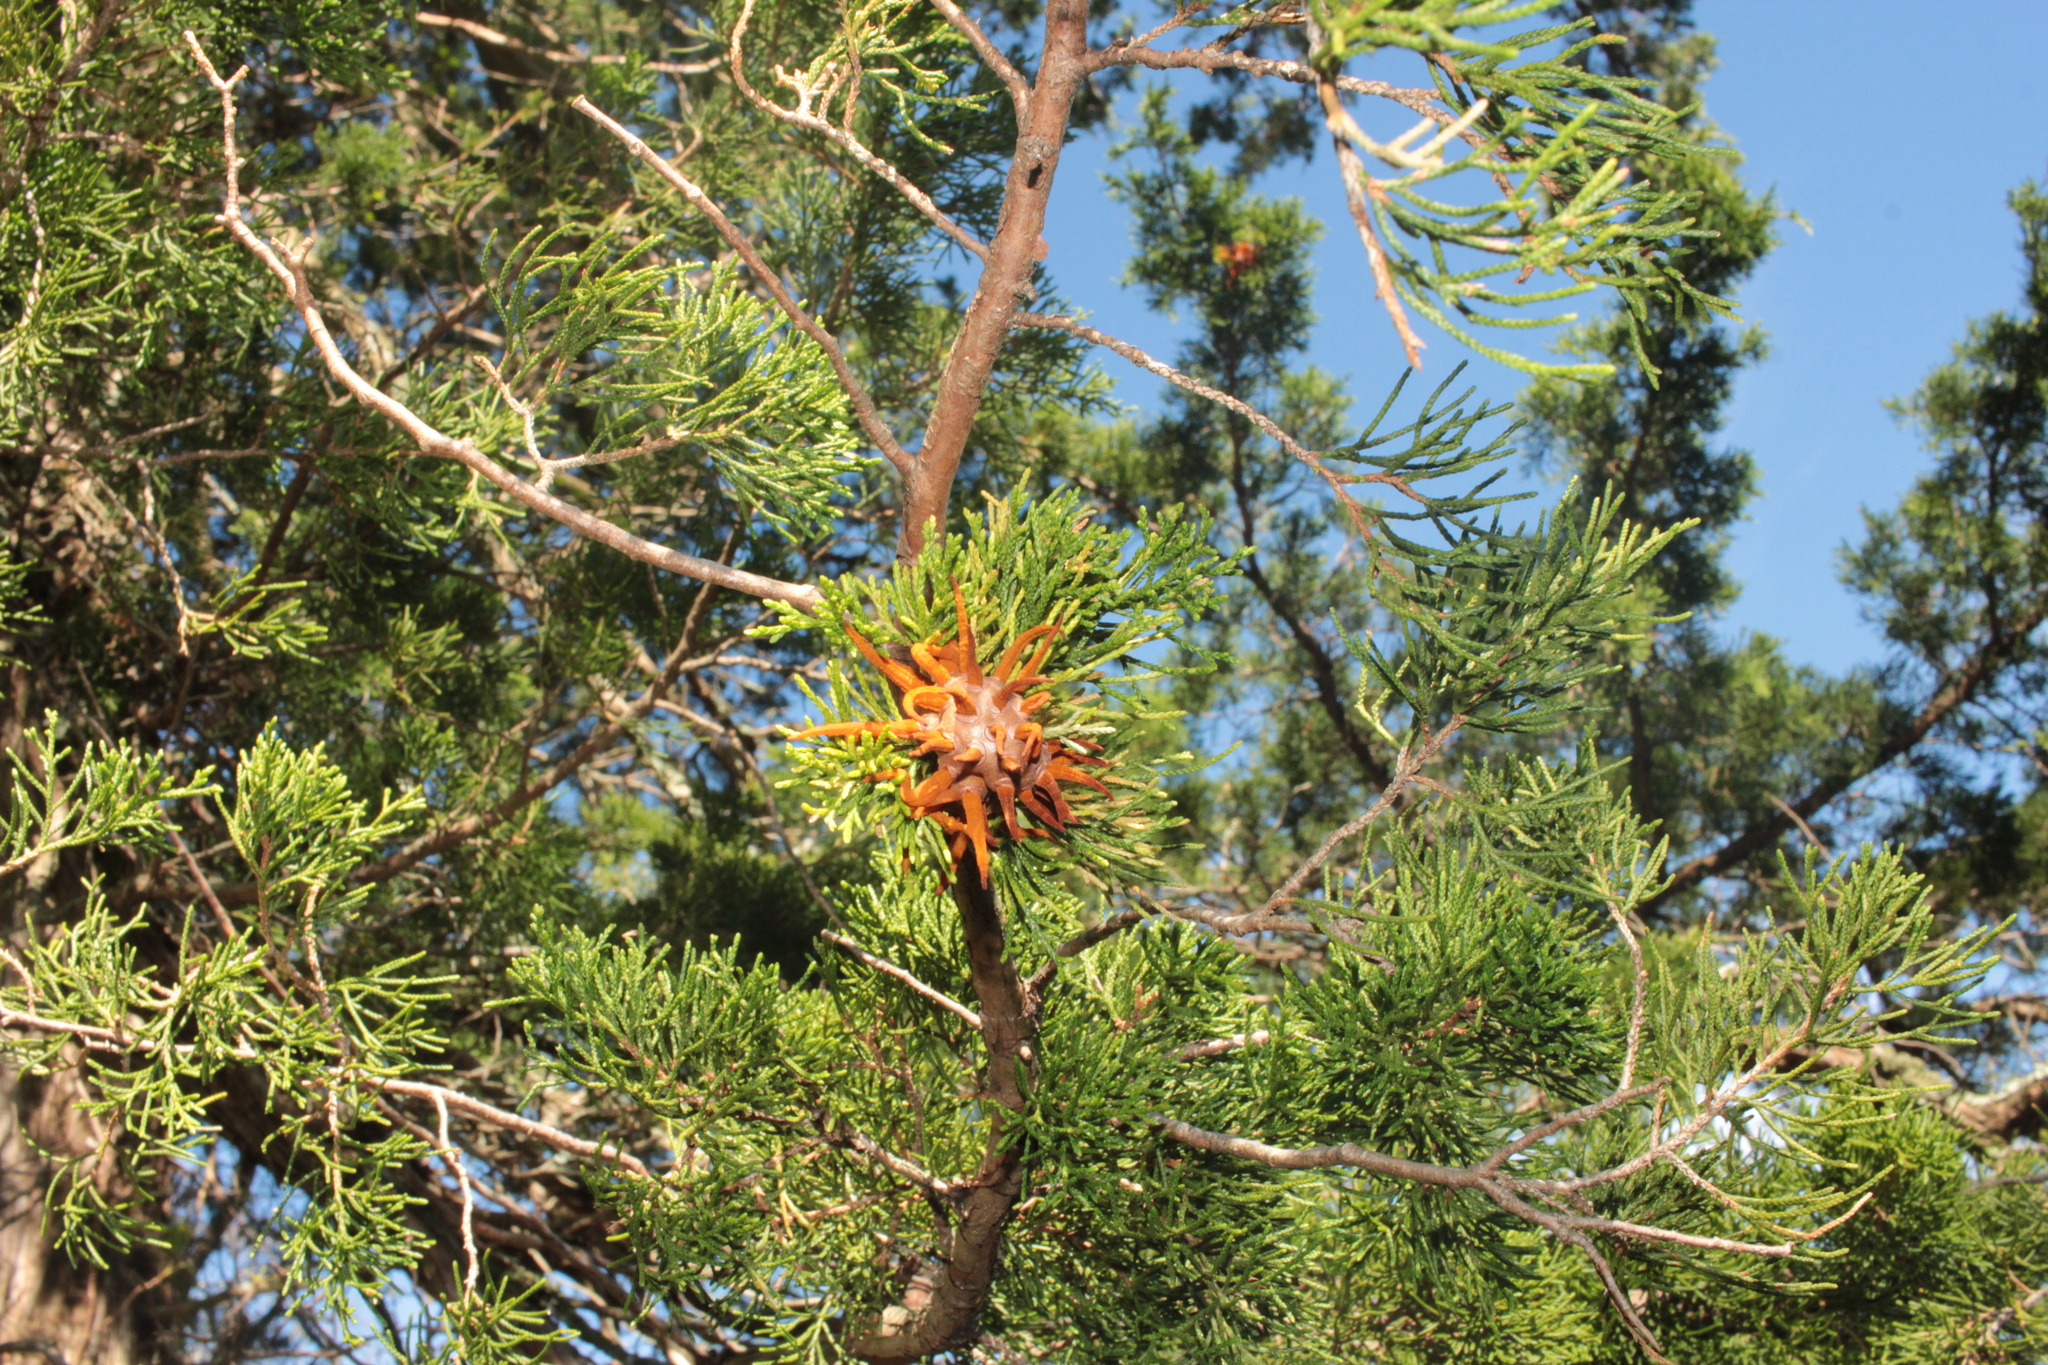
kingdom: Fungi
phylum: Basidiomycota
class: Pucciniomycetes
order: Pucciniales
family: Gymnosporangiaceae
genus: Gymnosporangium
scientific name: Gymnosporangium juniperi-virginianae
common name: Juniper-apple rust
